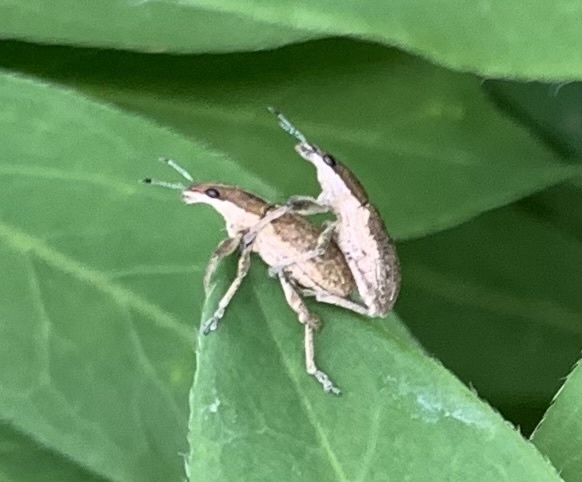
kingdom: Animalia
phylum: Arthropoda
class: Insecta
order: Coleoptera
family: Curculionidae
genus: Charagmus
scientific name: Charagmus gressorius
